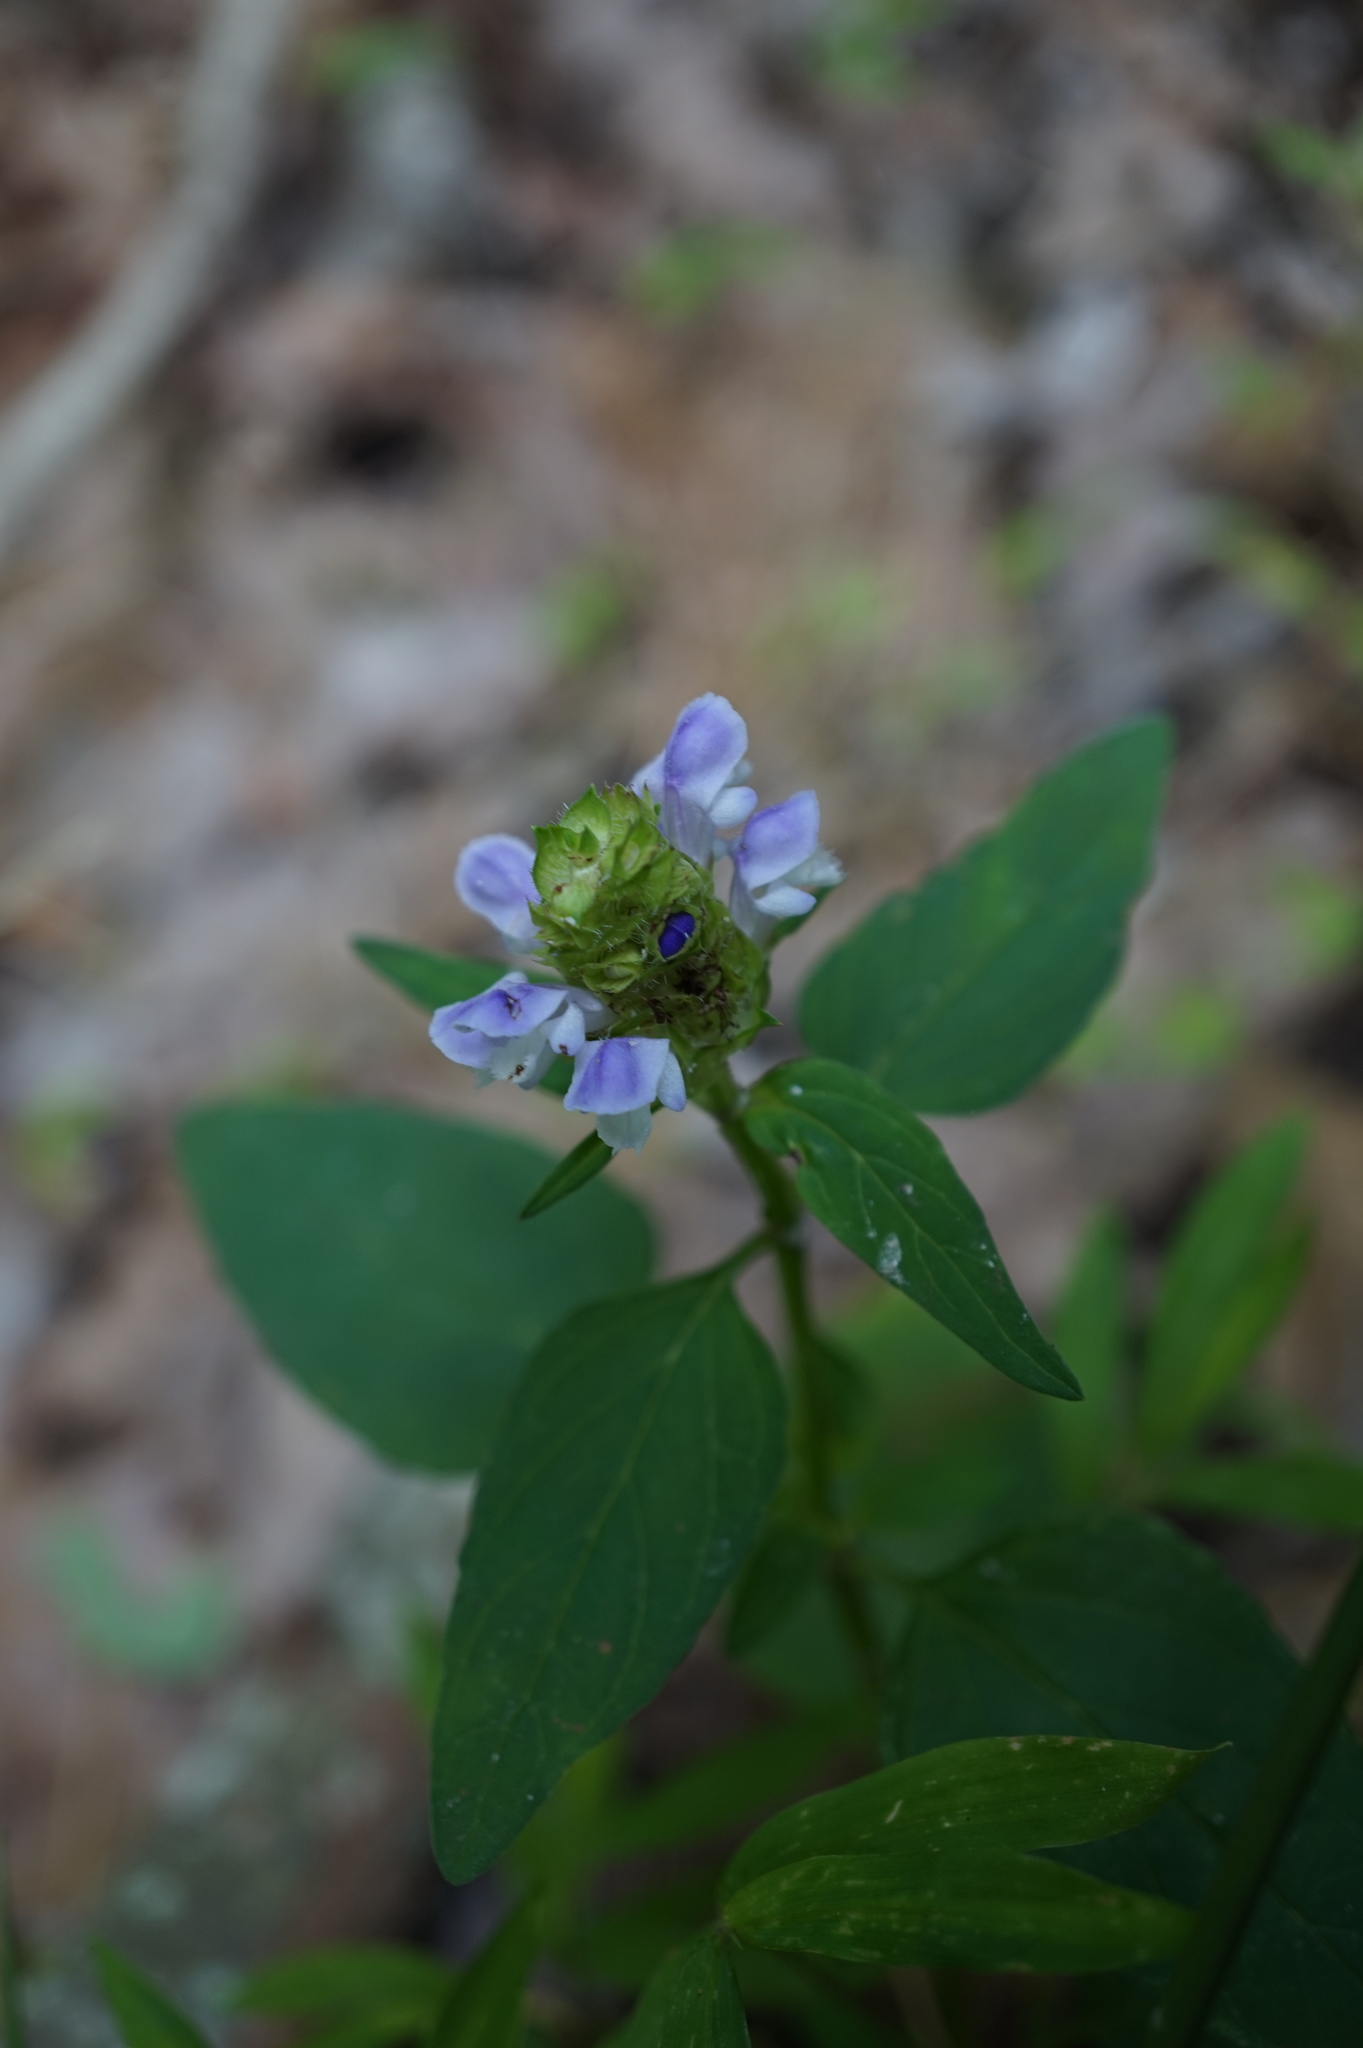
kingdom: Plantae
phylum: Tracheophyta
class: Magnoliopsida
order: Lamiales
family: Lamiaceae
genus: Prunella
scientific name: Prunella vulgaris
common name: Heal-all
